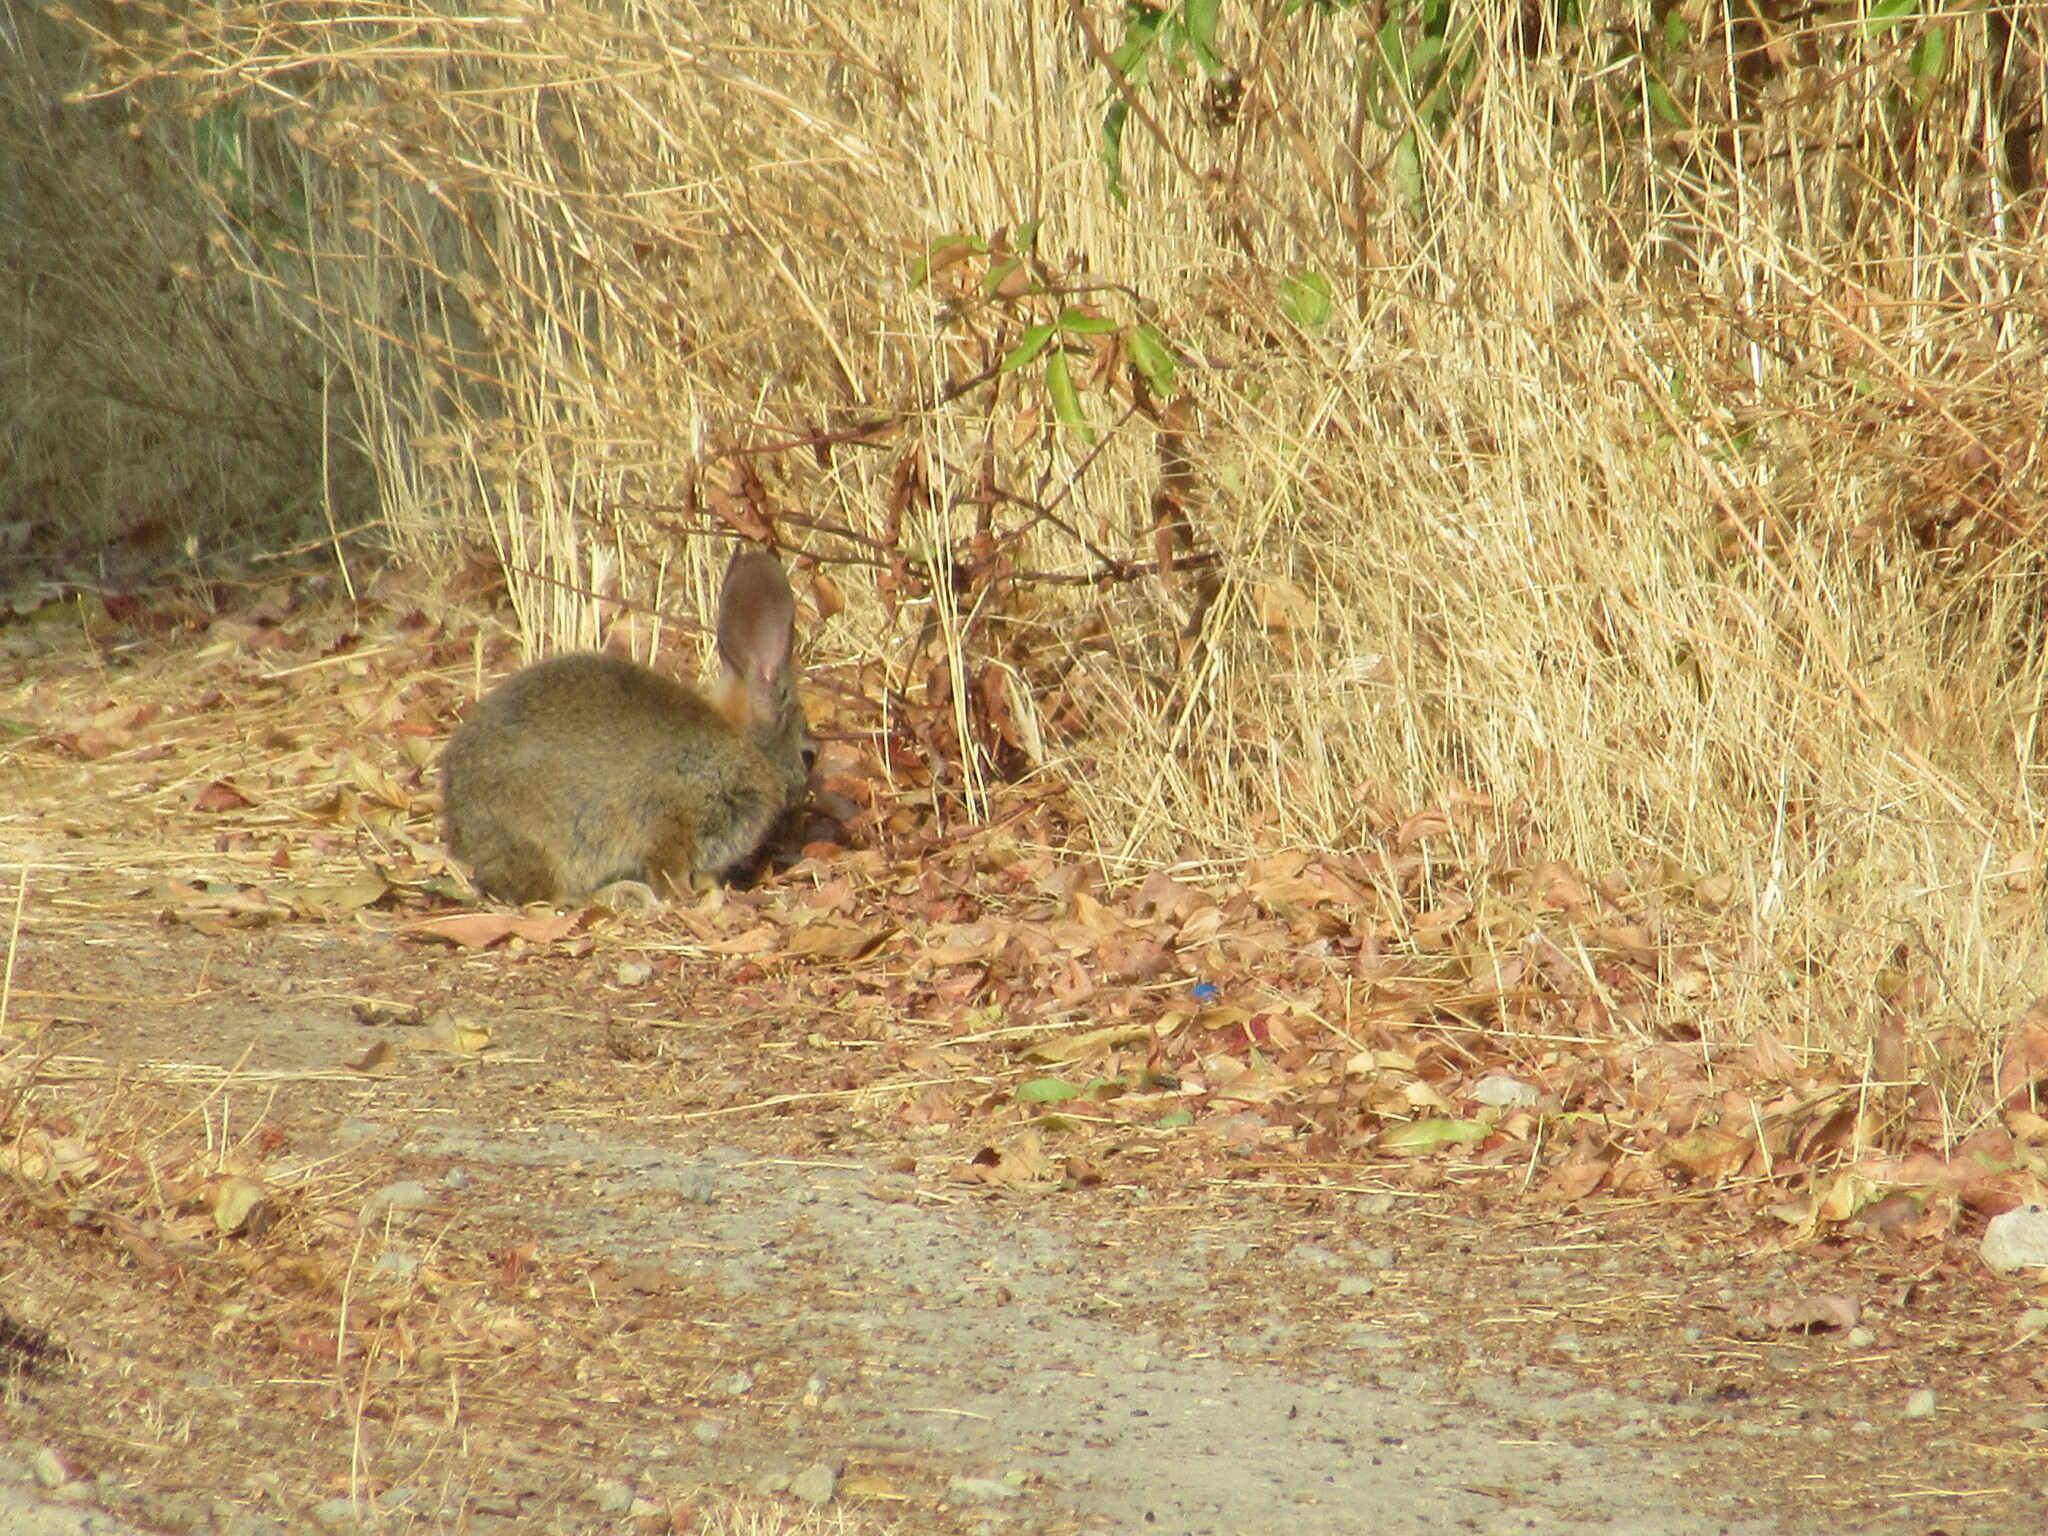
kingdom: Animalia
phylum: Chordata
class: Mammalia
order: Lagomorpha
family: Leporidae
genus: Sylvilagus
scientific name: Sylvilagus bachmani
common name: Brush rabbit
